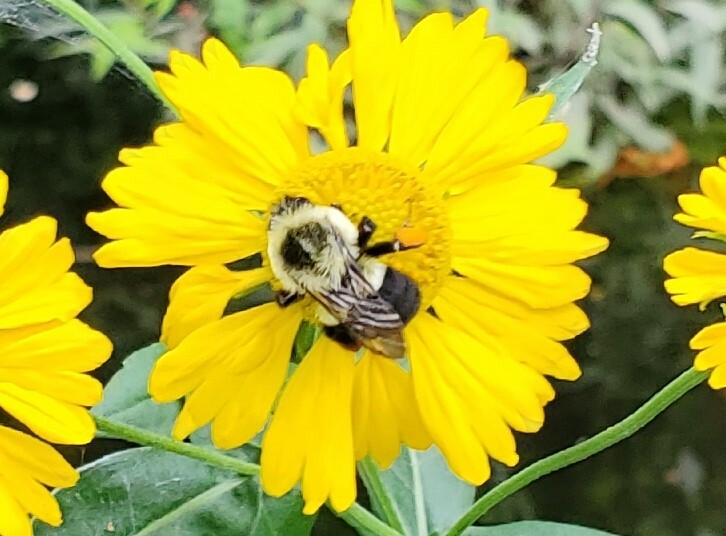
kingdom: Animalia
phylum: Arthropoda
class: Insecta
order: Hymenoptera
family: Apidae
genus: Bombus
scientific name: Bombus impatiens
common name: Common eastern bumble bee
